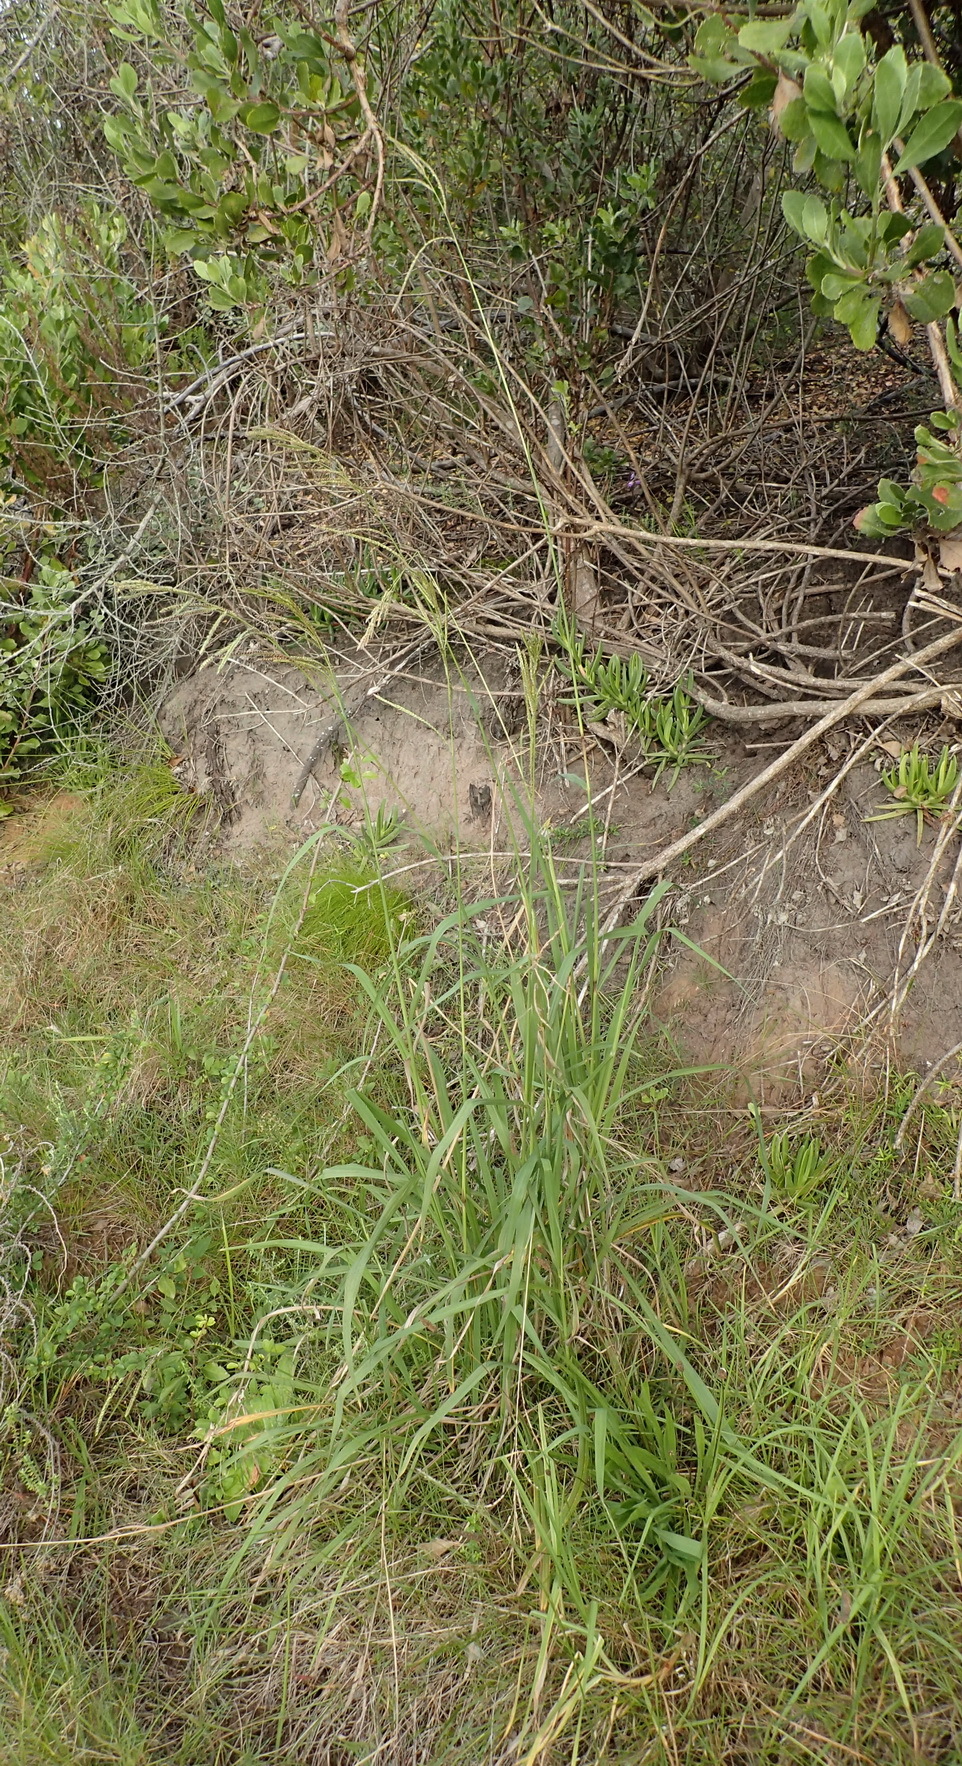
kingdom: Plantae
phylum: Tracheophyta
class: Liliopsida
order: Poales
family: Poaceae
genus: Paspalum
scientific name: Paspalum urvillei
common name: Vasey's grass
